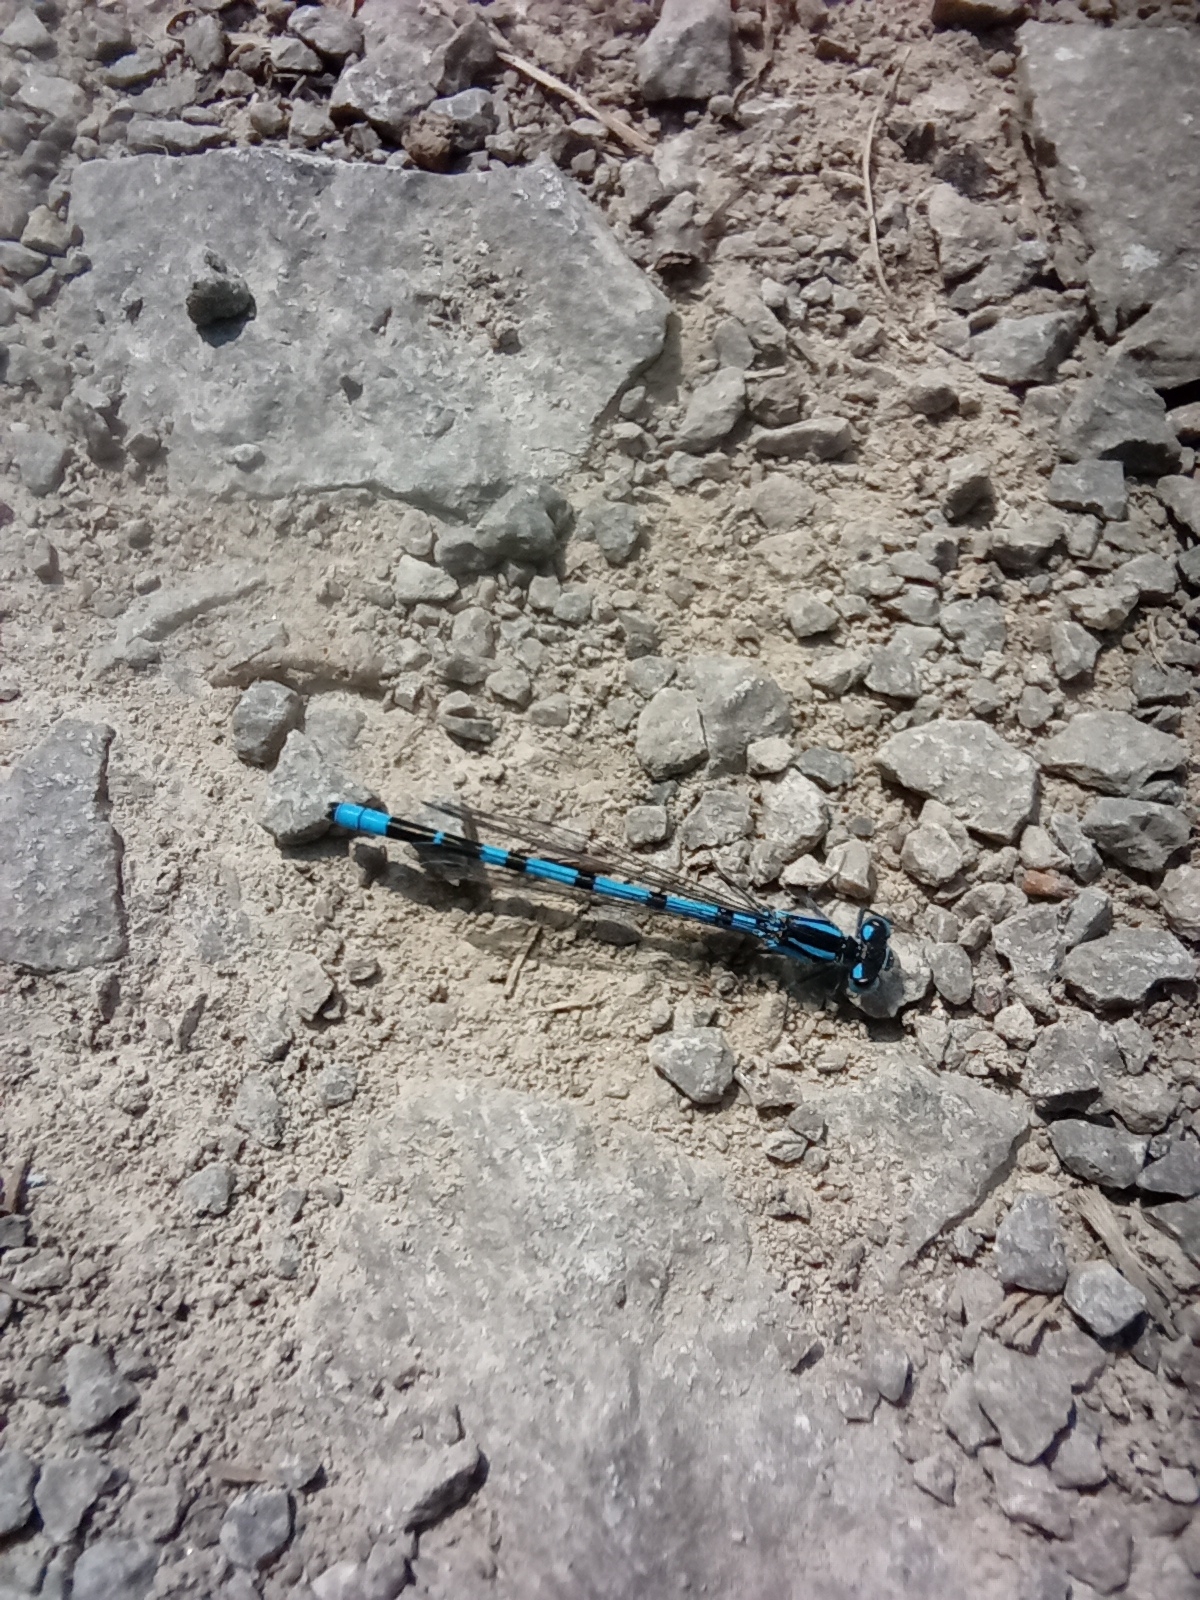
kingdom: Animalia
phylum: Arthropoda
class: Insecta
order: Odonata
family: Coenagrionidae
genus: Enallagma
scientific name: Enallagma cyathigerum
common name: Common blue damselfly
